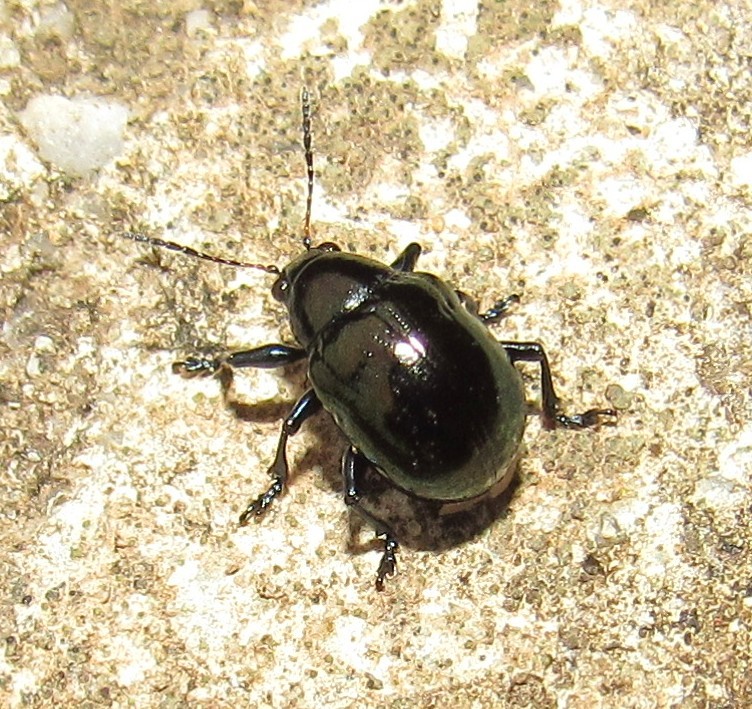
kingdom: Animalia
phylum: Arthropoda
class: Insecta
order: Coleoptera
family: Chrysomelidae
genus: Typophorus
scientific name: Typophorus nigritus
